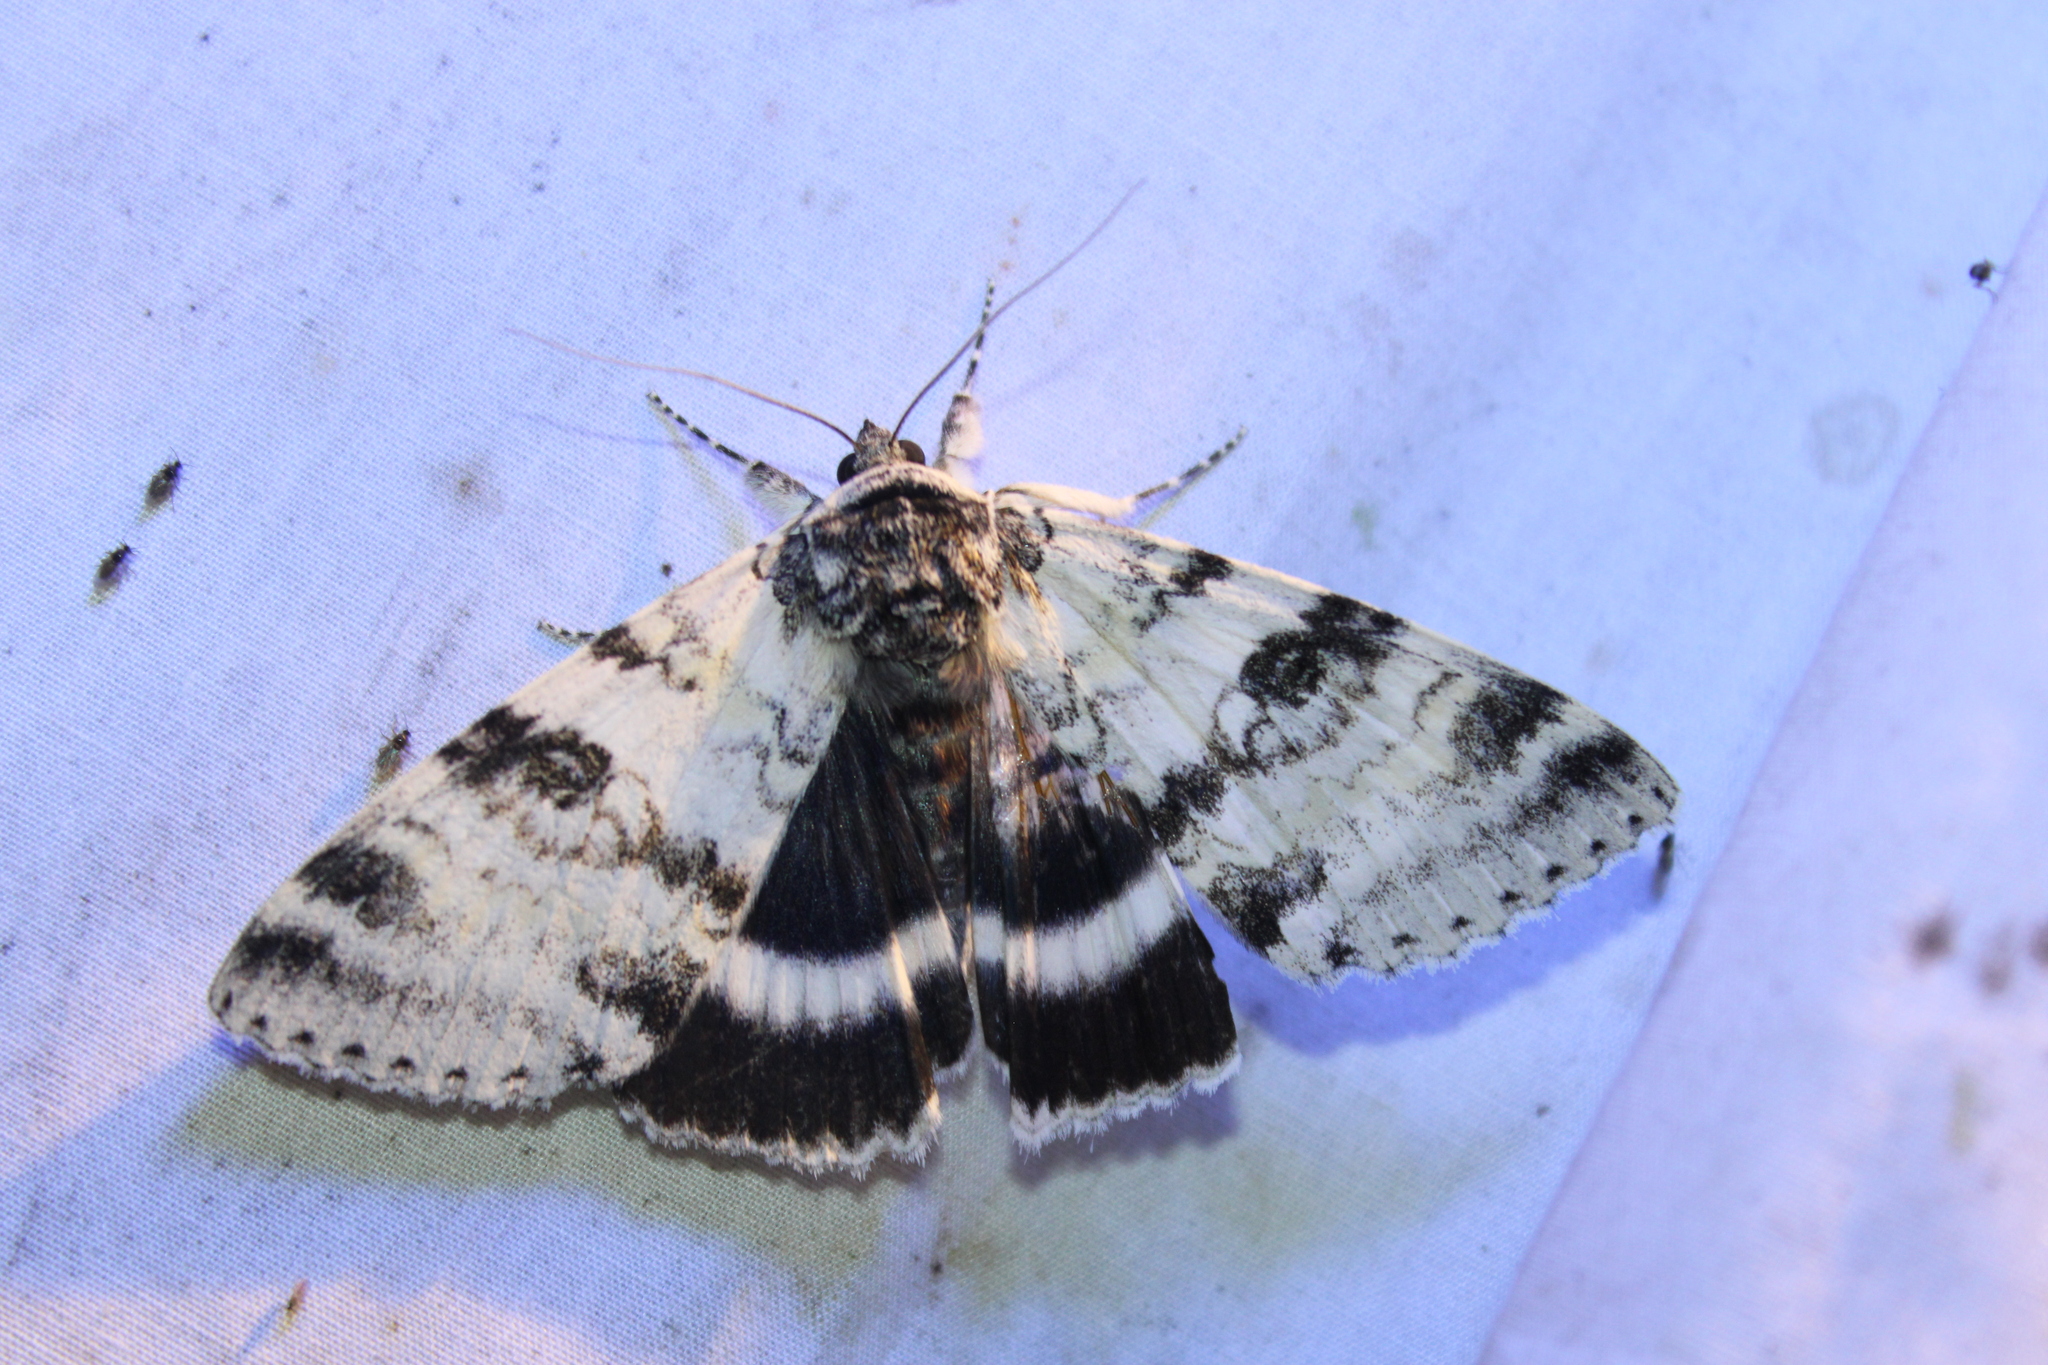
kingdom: Animalia
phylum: Arthropoda
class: Insecta
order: Lepidoptera
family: Erebidae
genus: Catocala
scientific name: Catocala relicta
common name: White underwing
